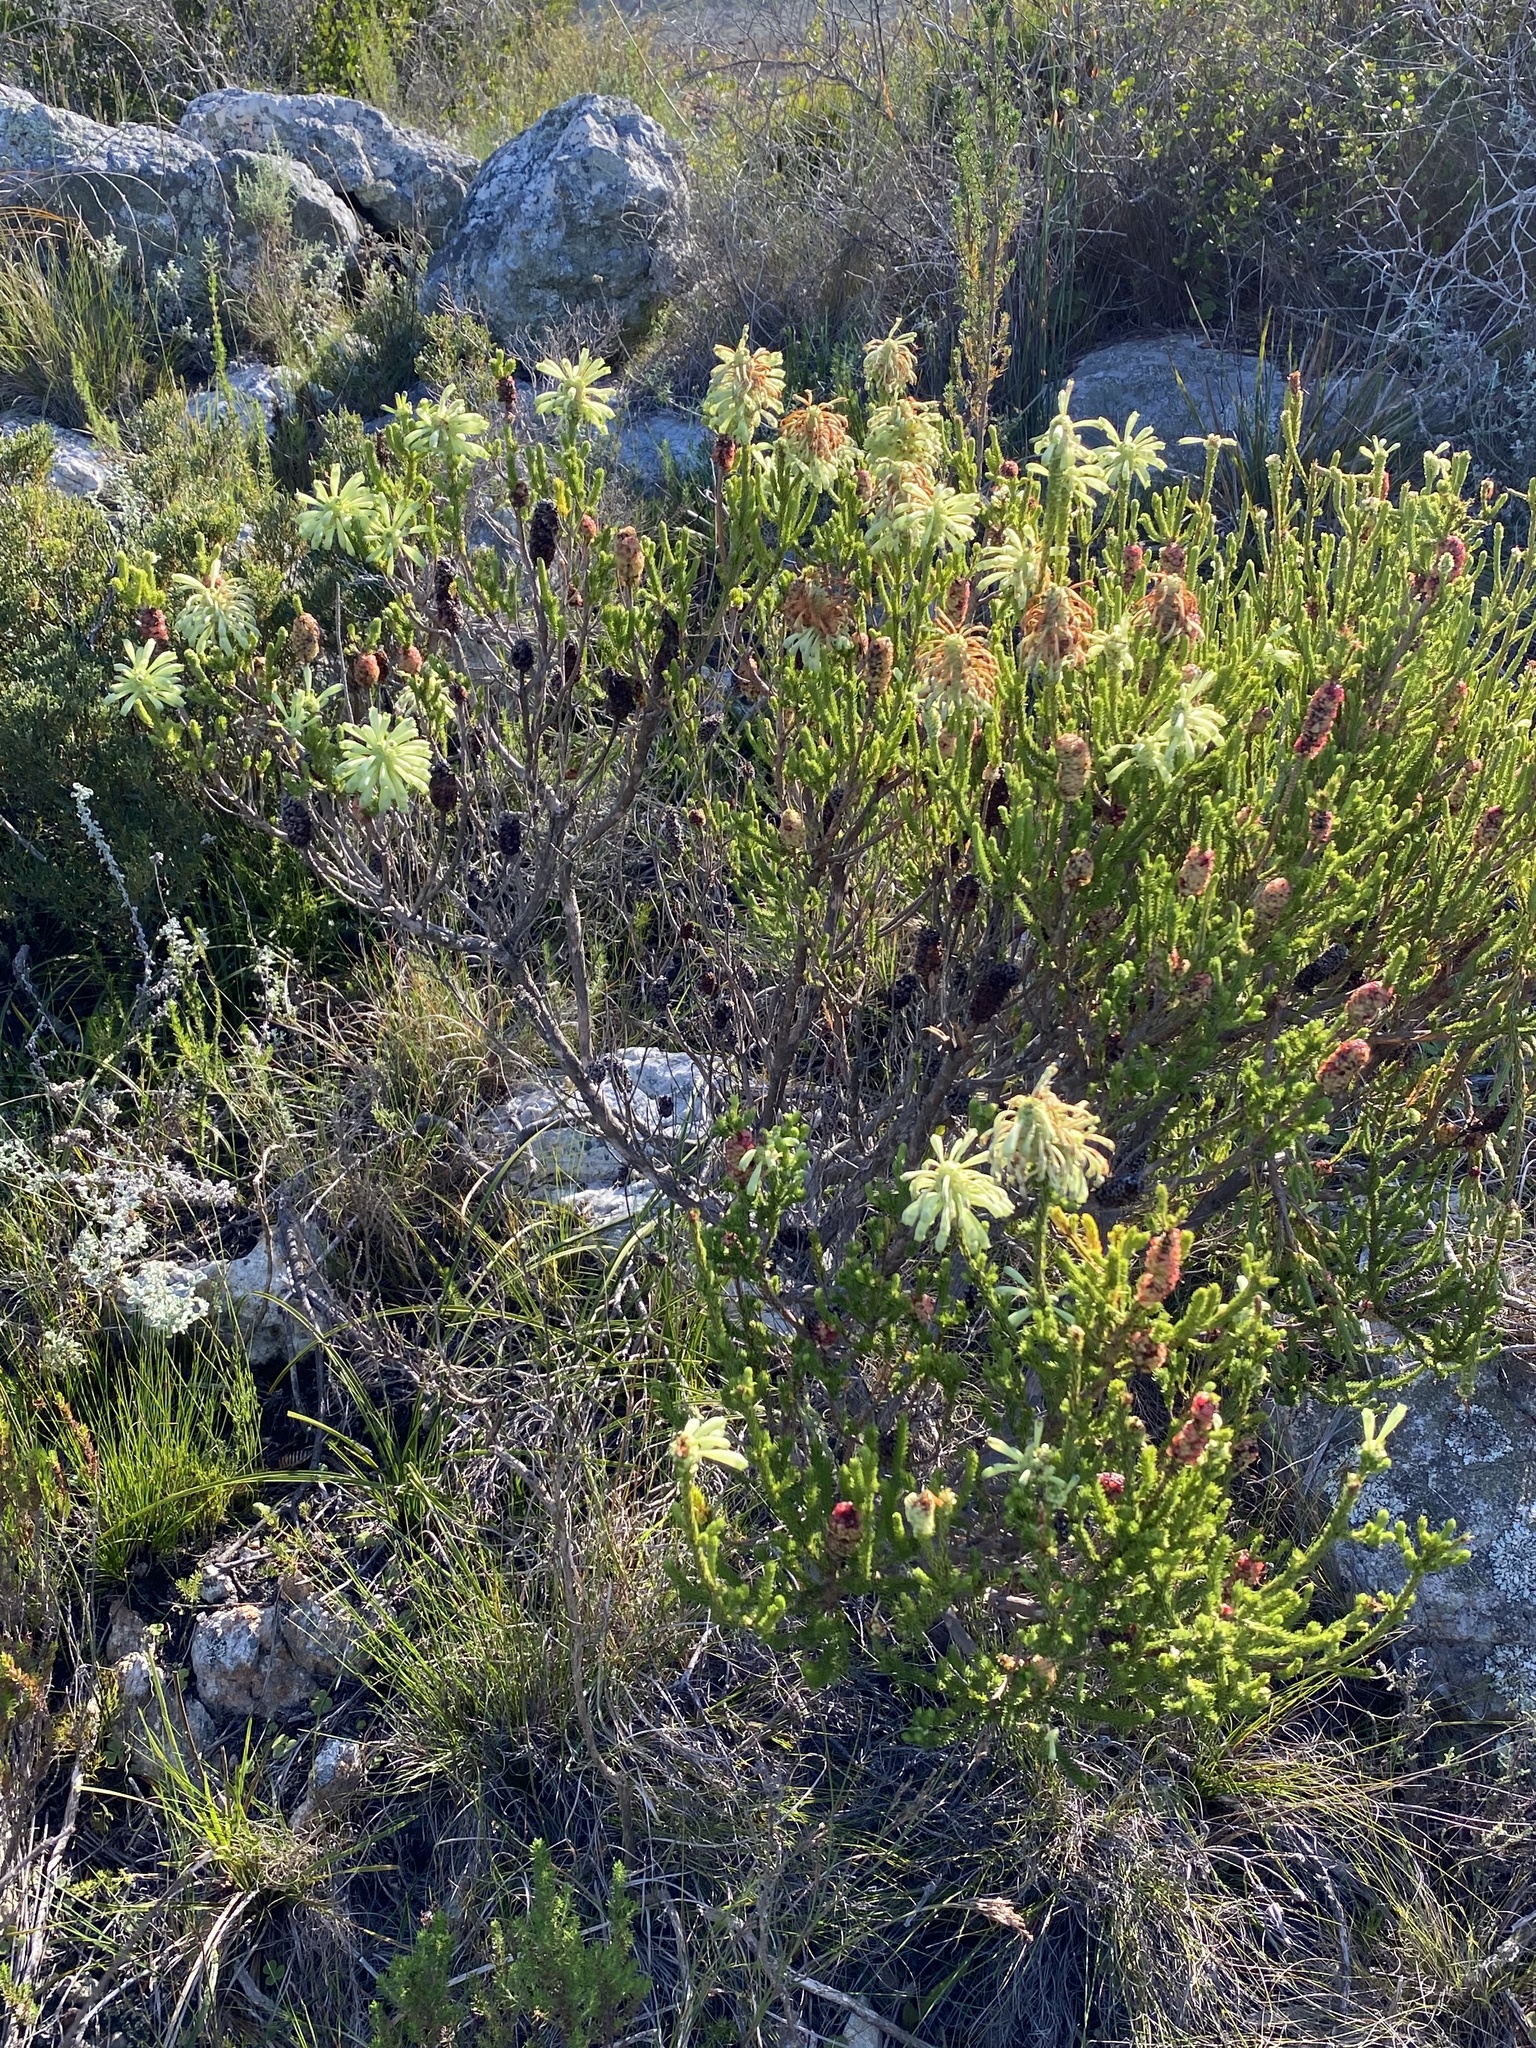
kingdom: Plantae
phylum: Tracheophyta
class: Magnoliopsida
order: Ericales
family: Ericaceae
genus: Erica
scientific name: Erica sessiliflora
